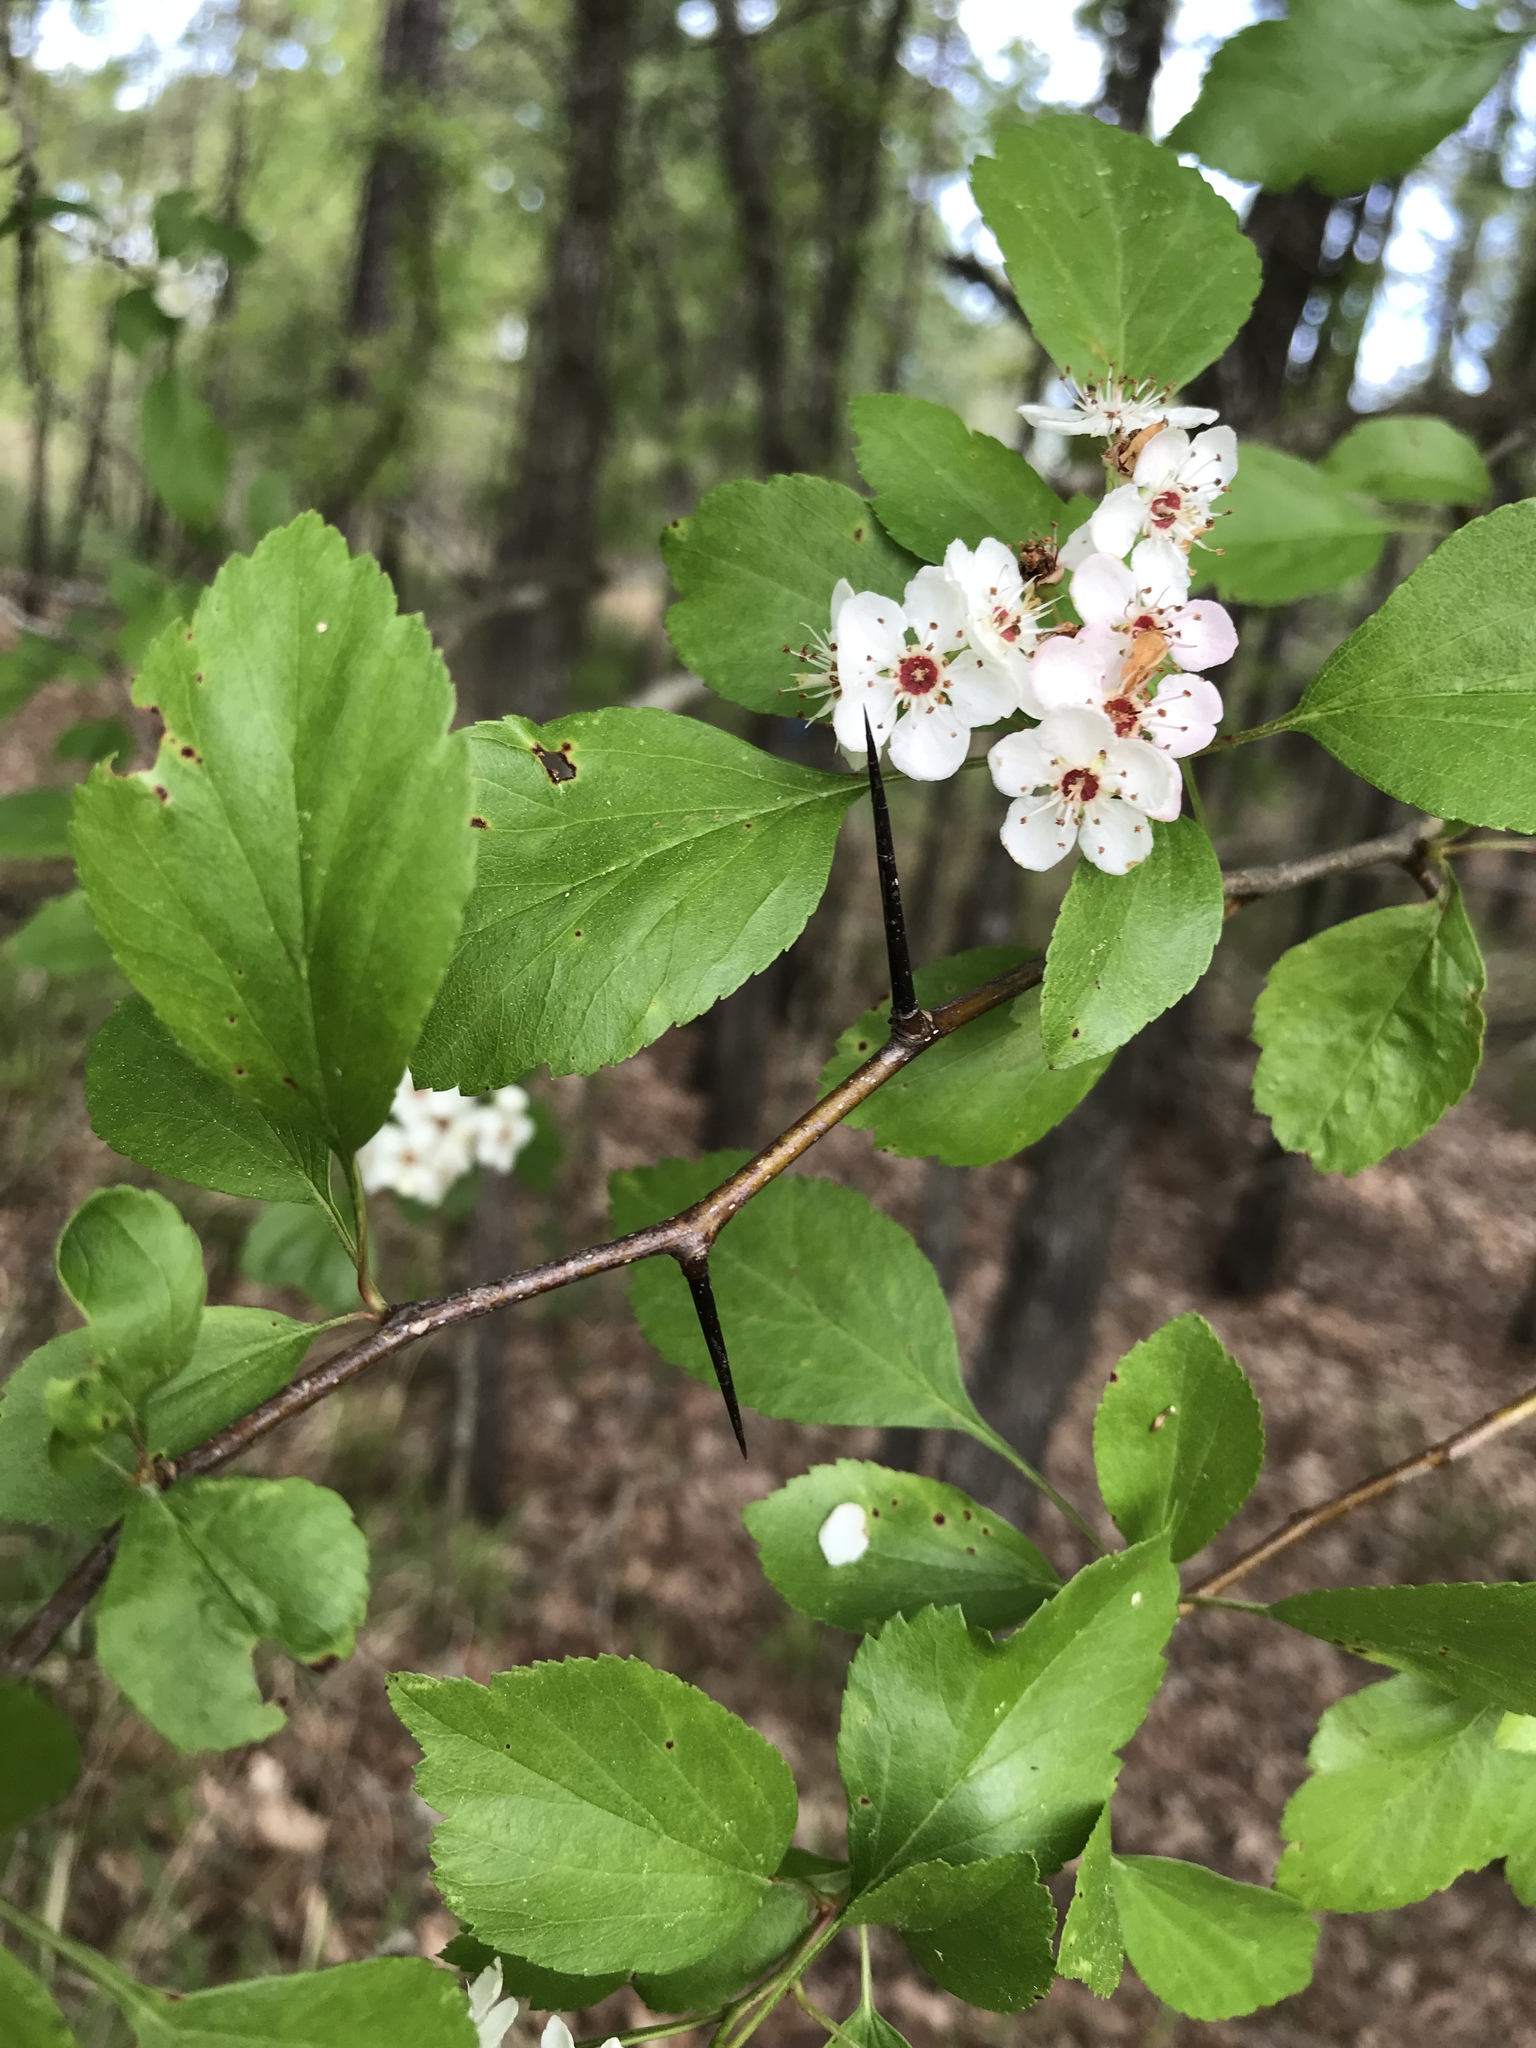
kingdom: Plantae
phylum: Tracheophyta
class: Magnoliopsida
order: Rosales
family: Rosaceae
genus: Crataegus
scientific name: Crataegus viridis
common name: Southernthorn
